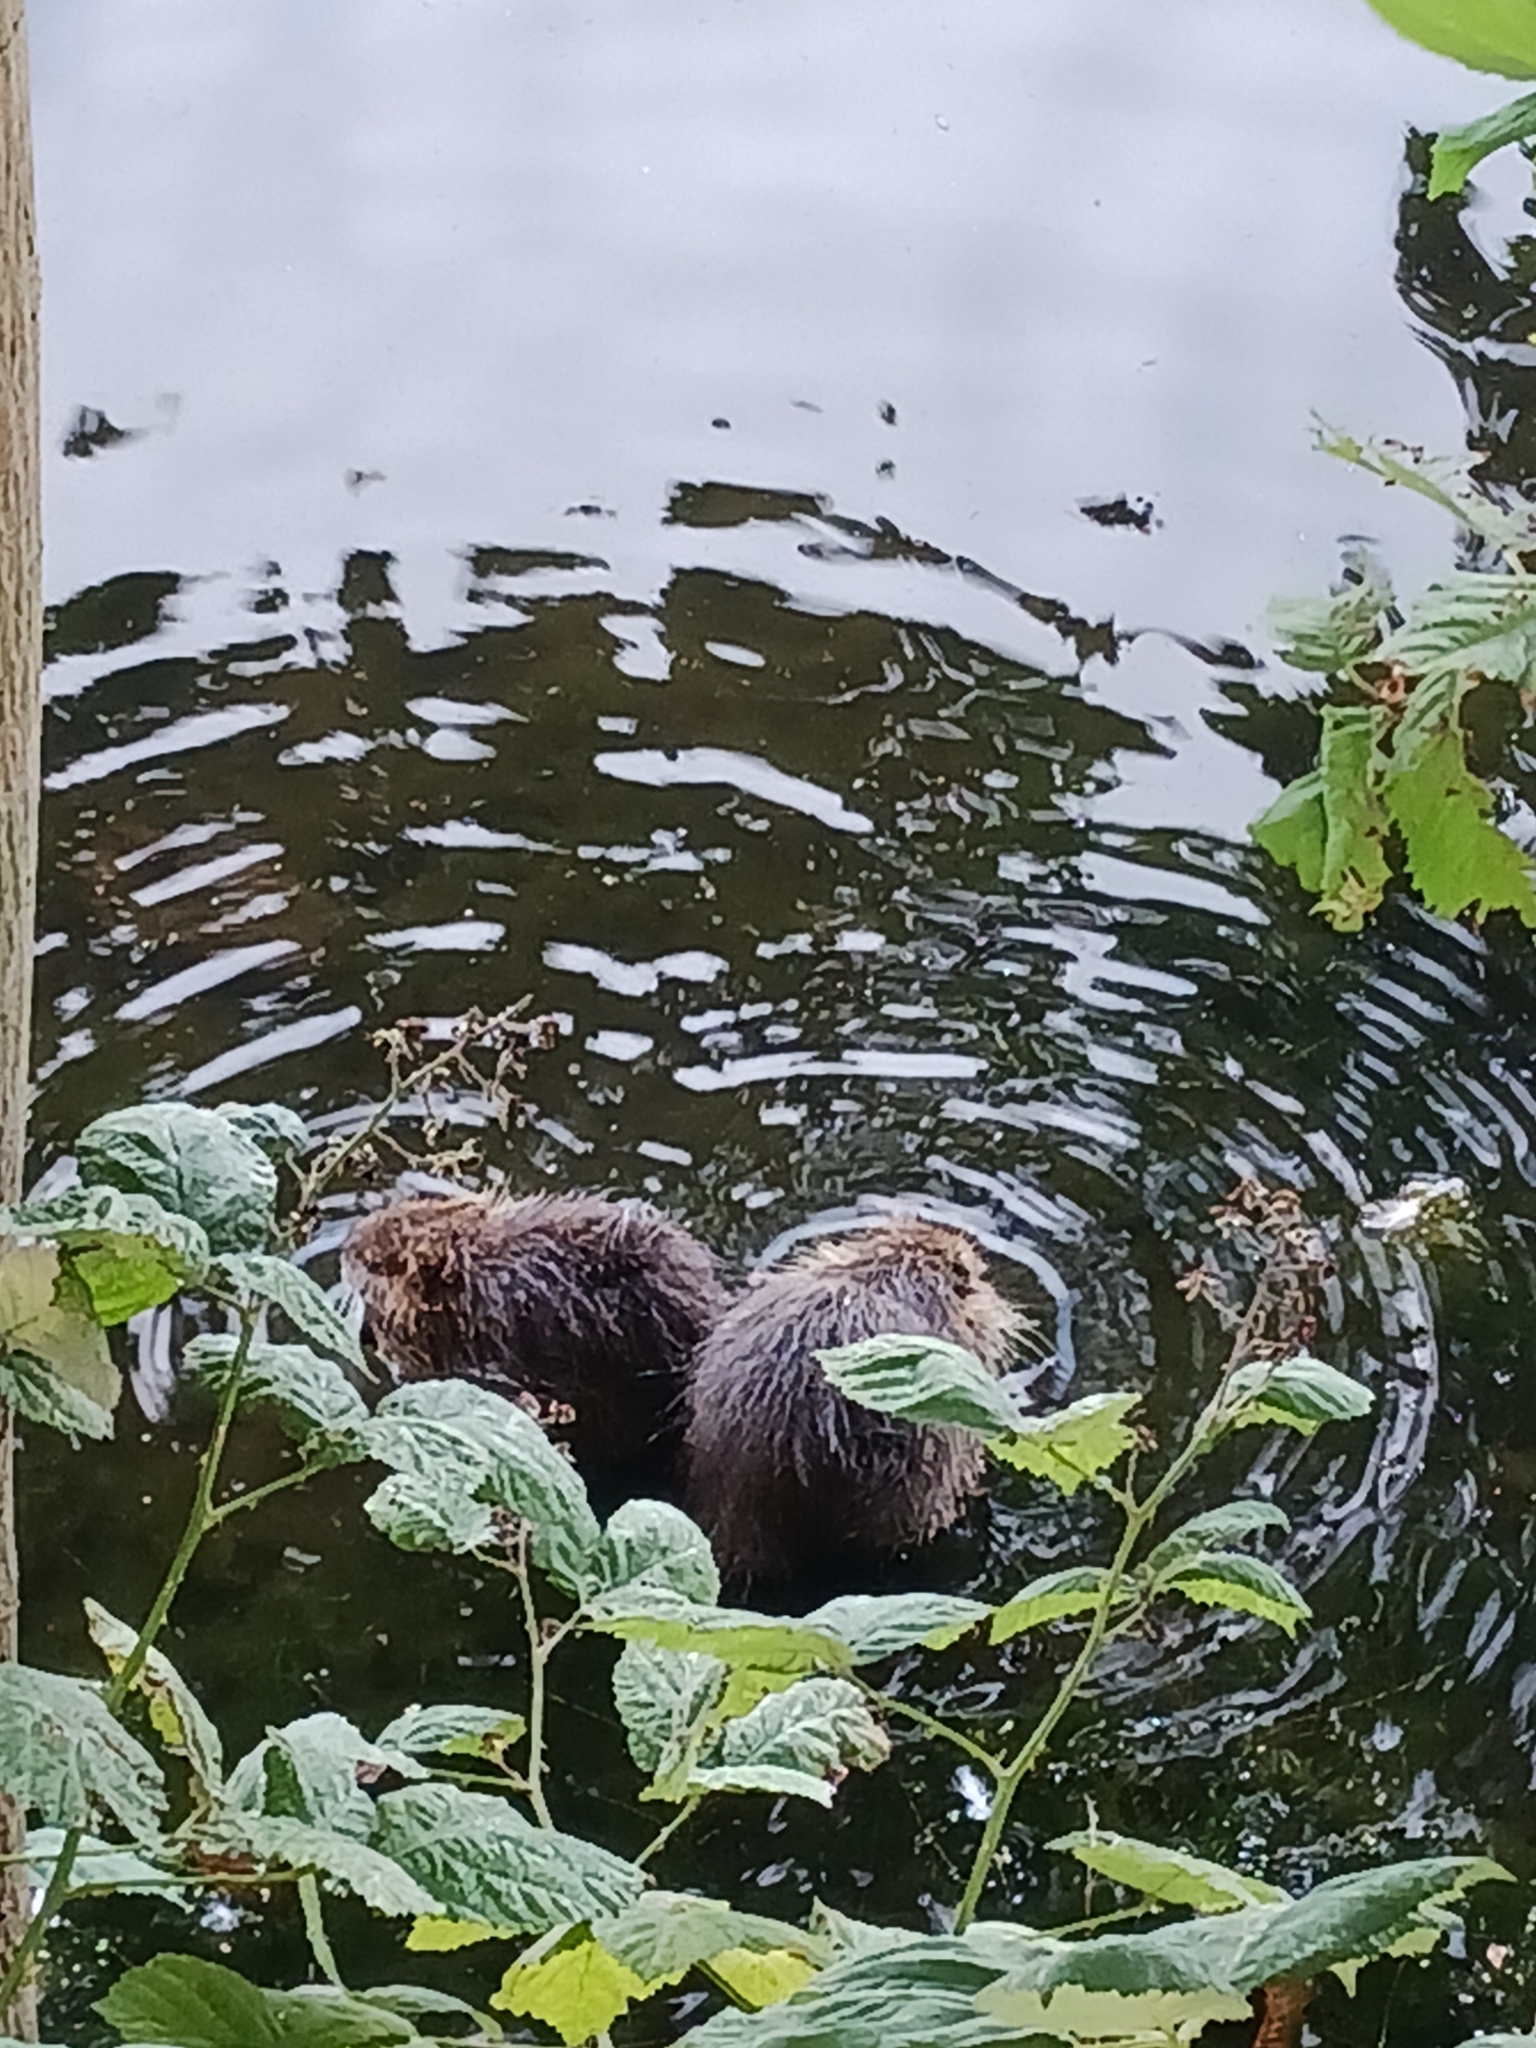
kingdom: Animalia
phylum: Chordata
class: Mammalia
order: Rodentia
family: Myocastoridae
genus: Myocastor
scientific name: Myocastor coypus
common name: Coypu
